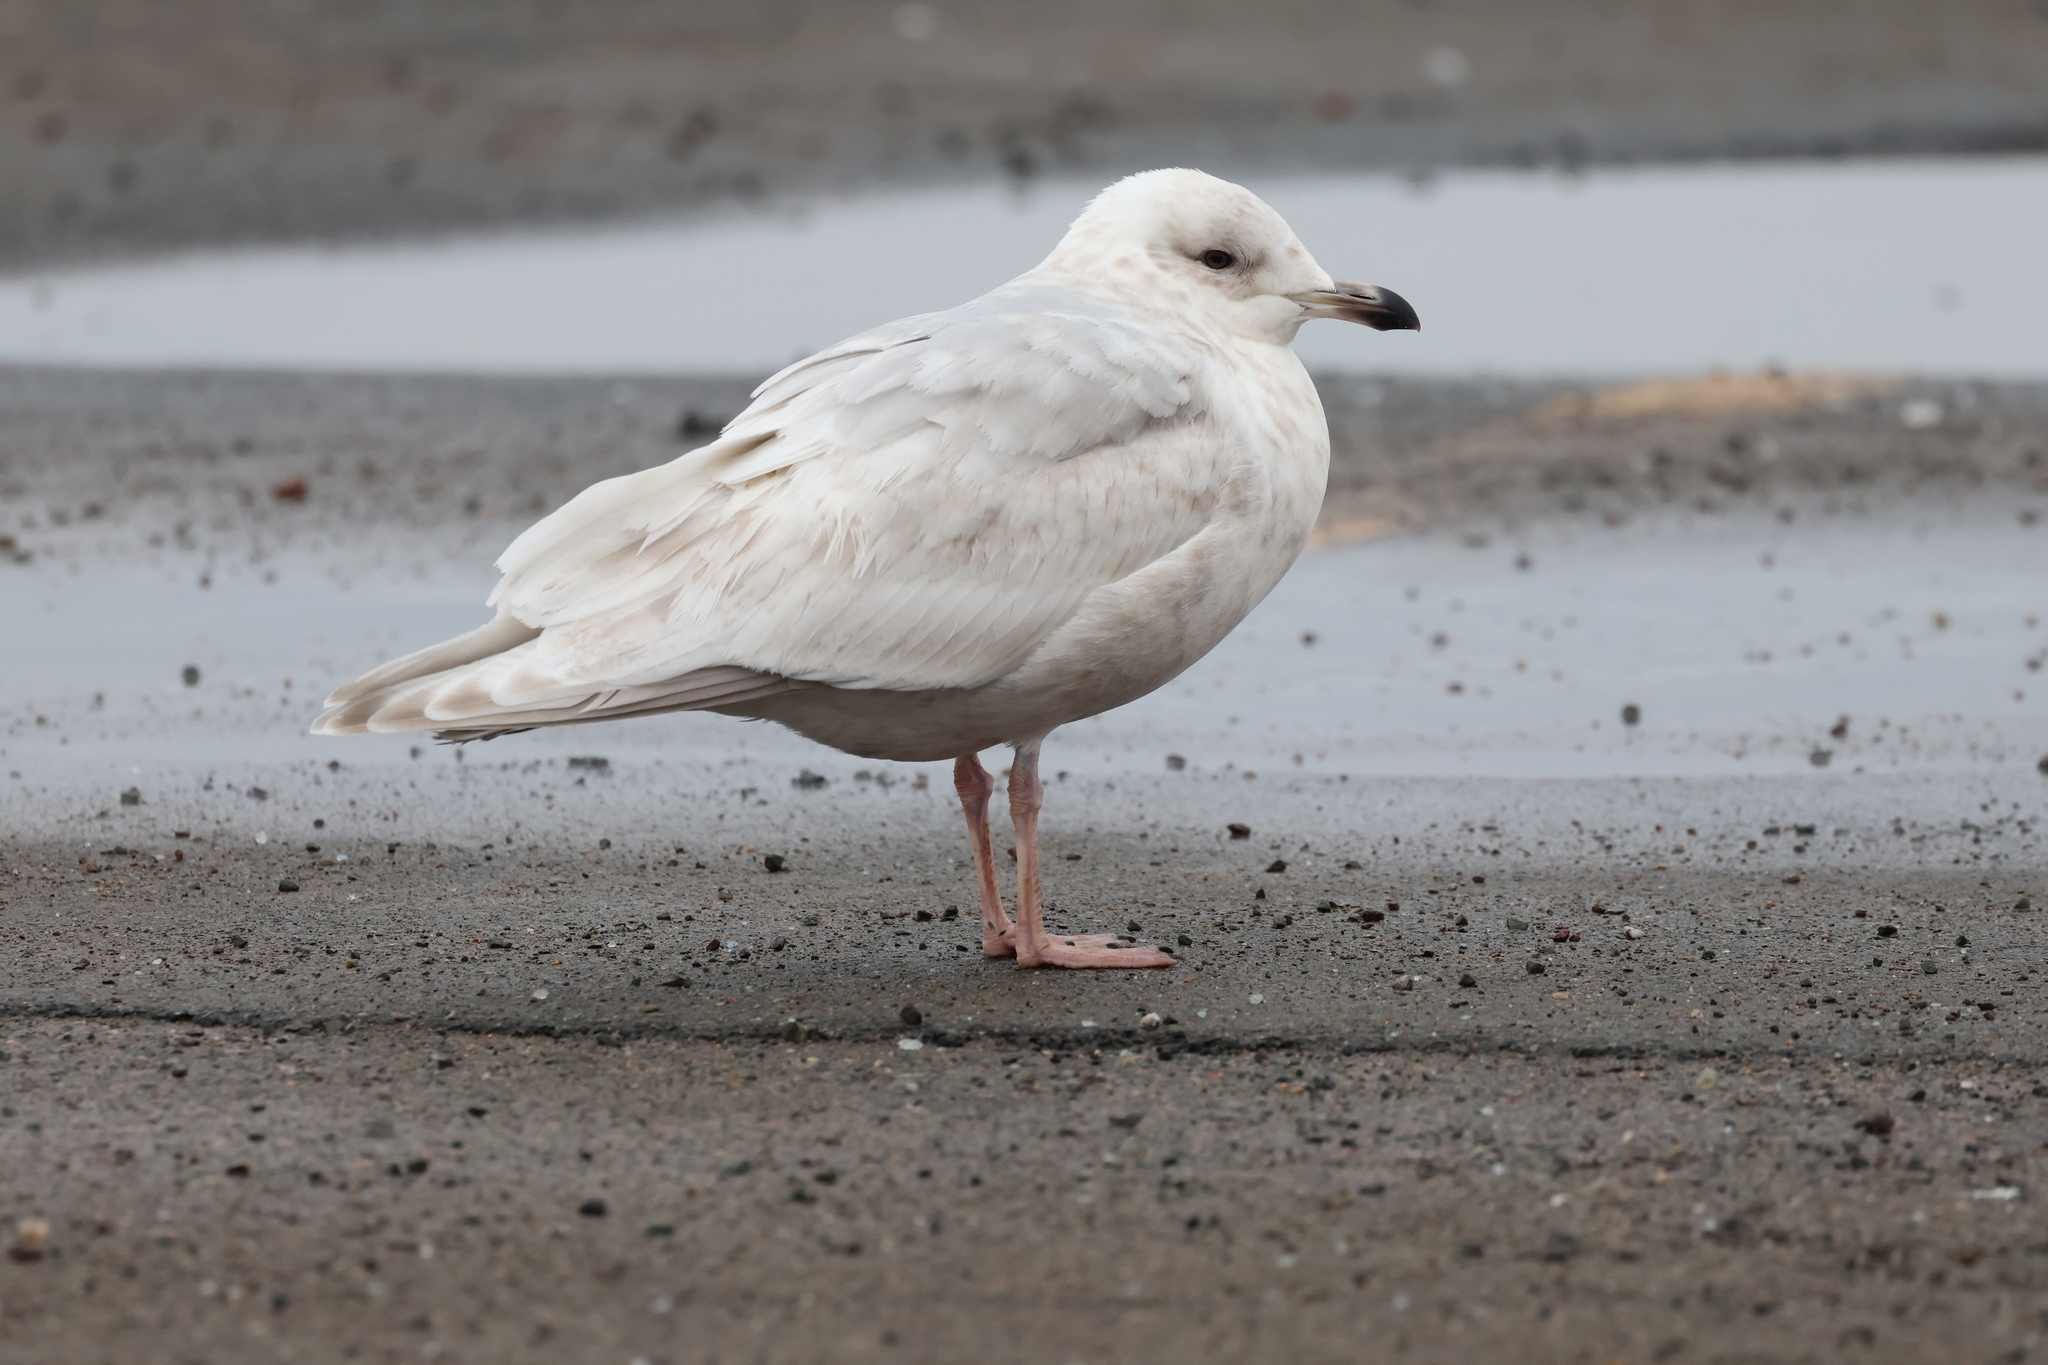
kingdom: Animalia
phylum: Chordata
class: Aves
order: Charadriiformes
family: Laridae
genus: Larus
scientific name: Larus glaucoides
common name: Iceland gull
